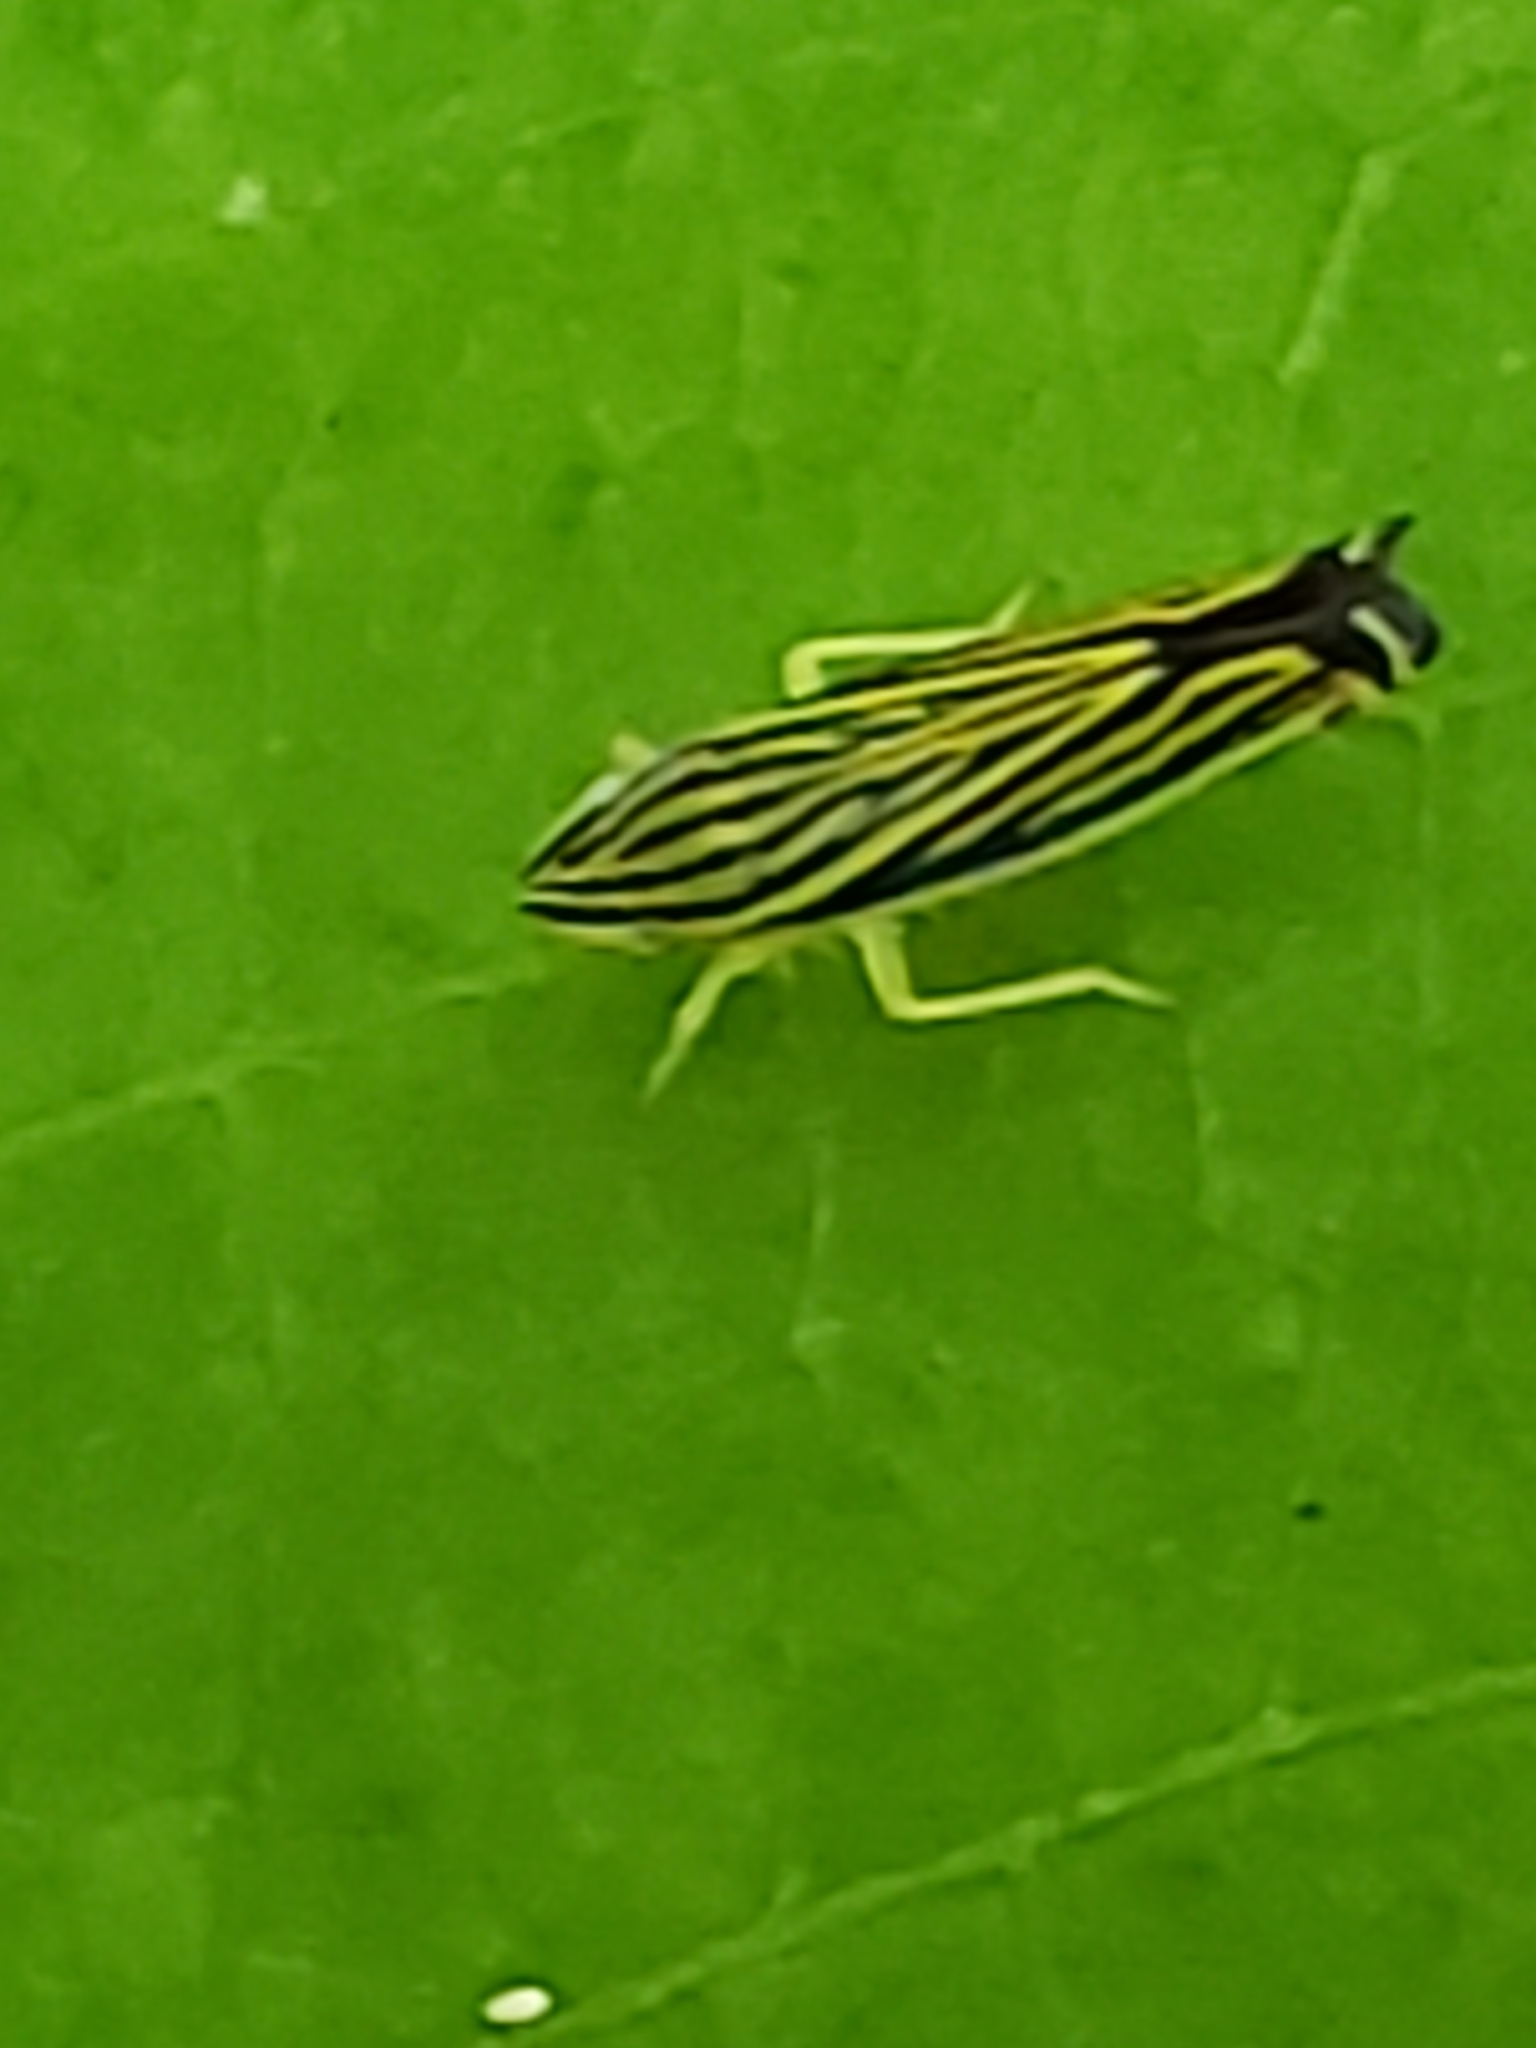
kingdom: Animalia
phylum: Arthropoda
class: Insecta
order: Hemiptera
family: Cicadellidae
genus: Sibovia
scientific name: Sibovia occatoria
